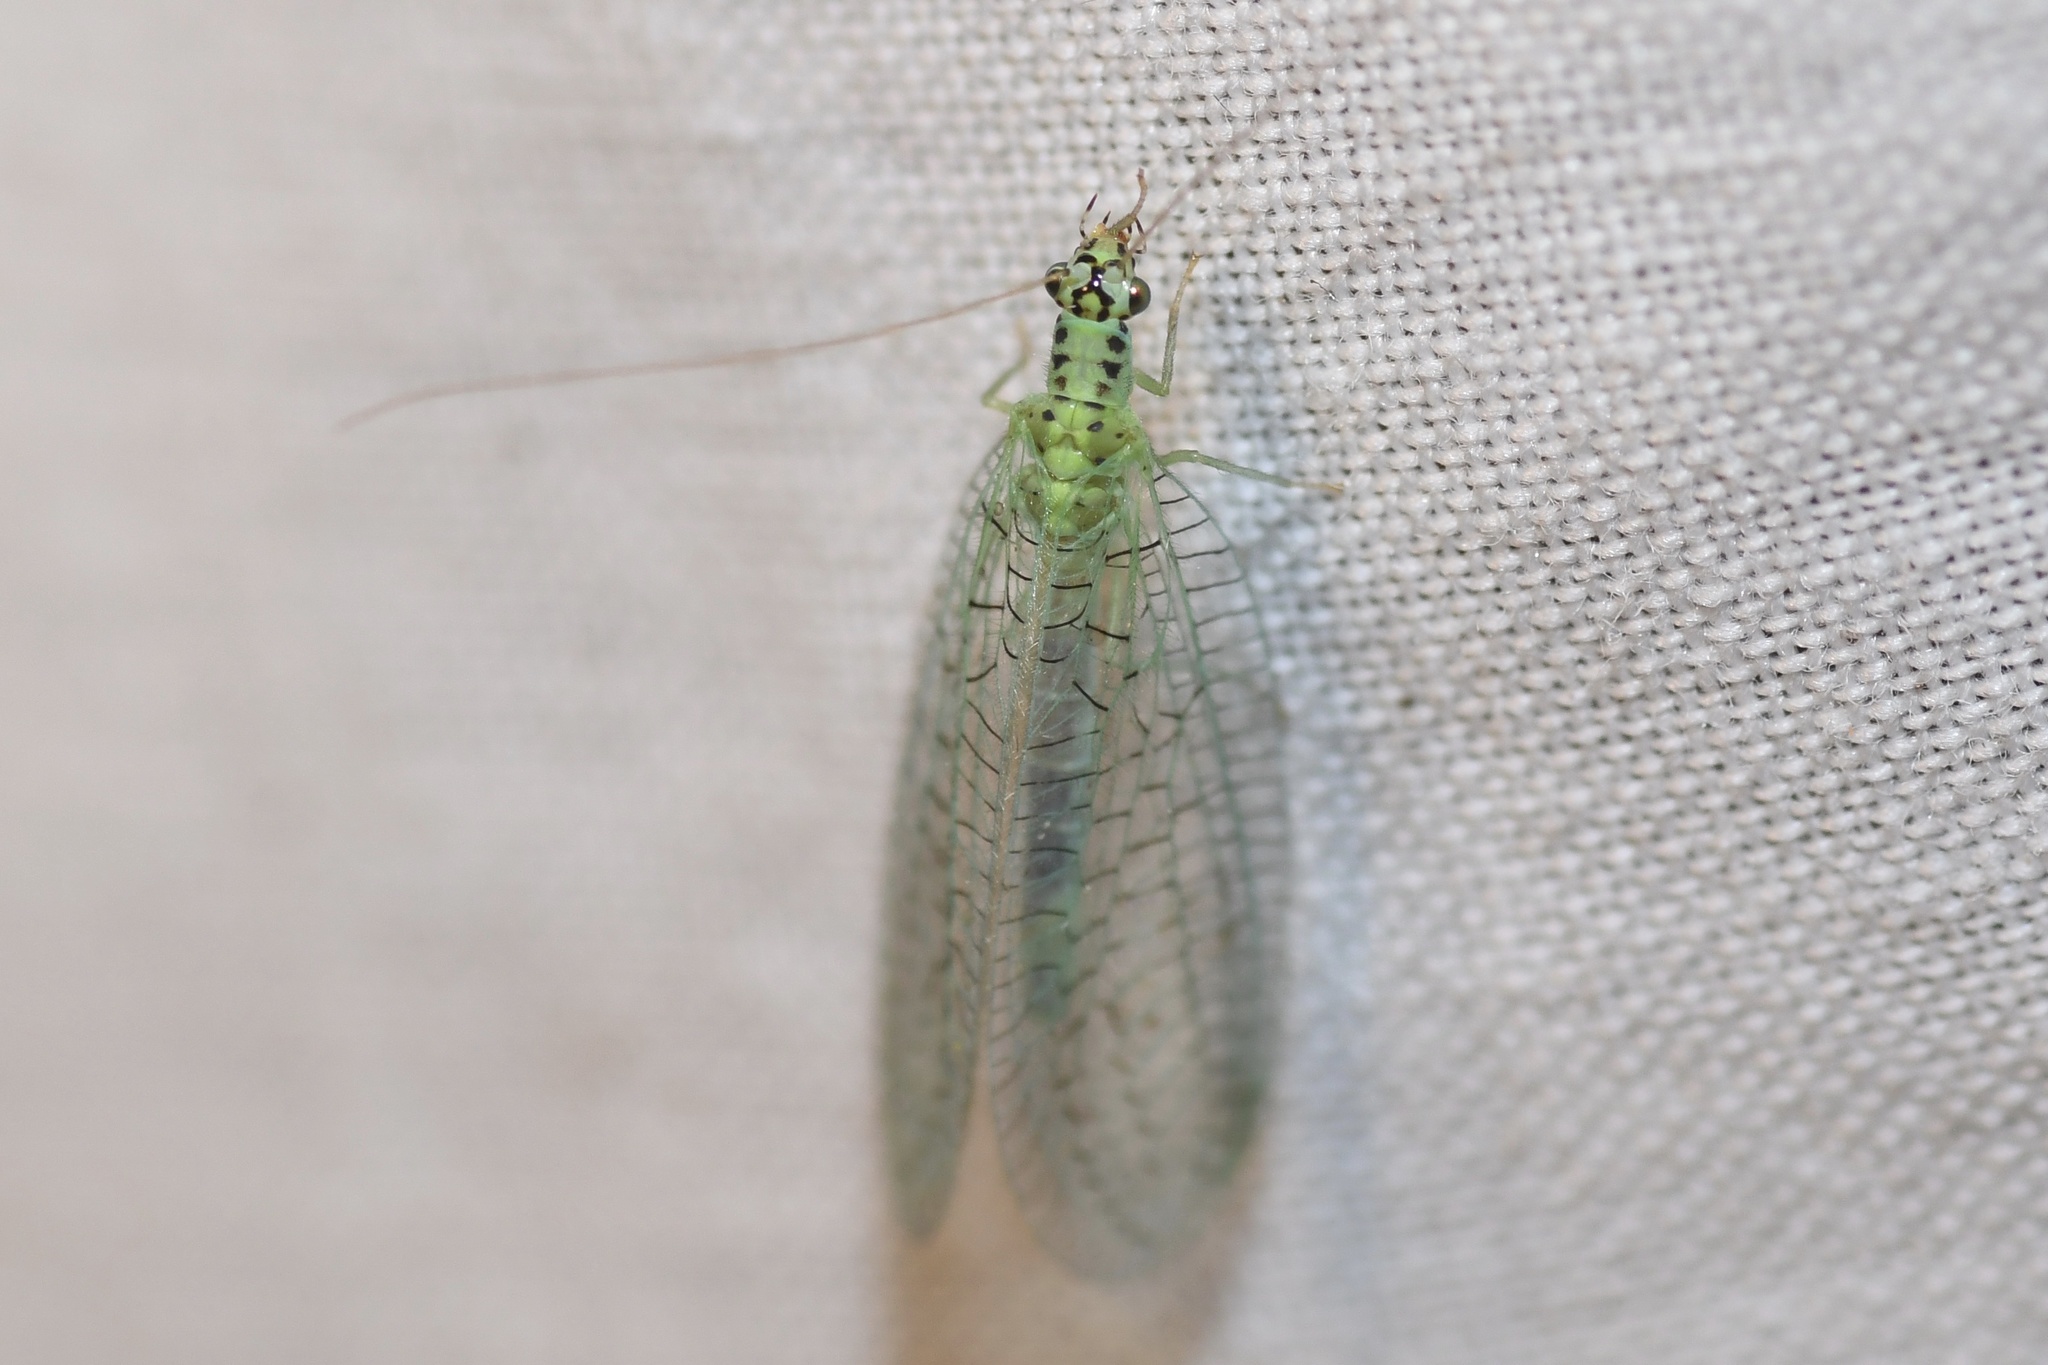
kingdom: Animalia
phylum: Arthropoda
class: Insecta
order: Neuroptera
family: Chrysopidae
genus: Chrysopa
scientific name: Chrysopa chi
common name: X-marked green lacewing
